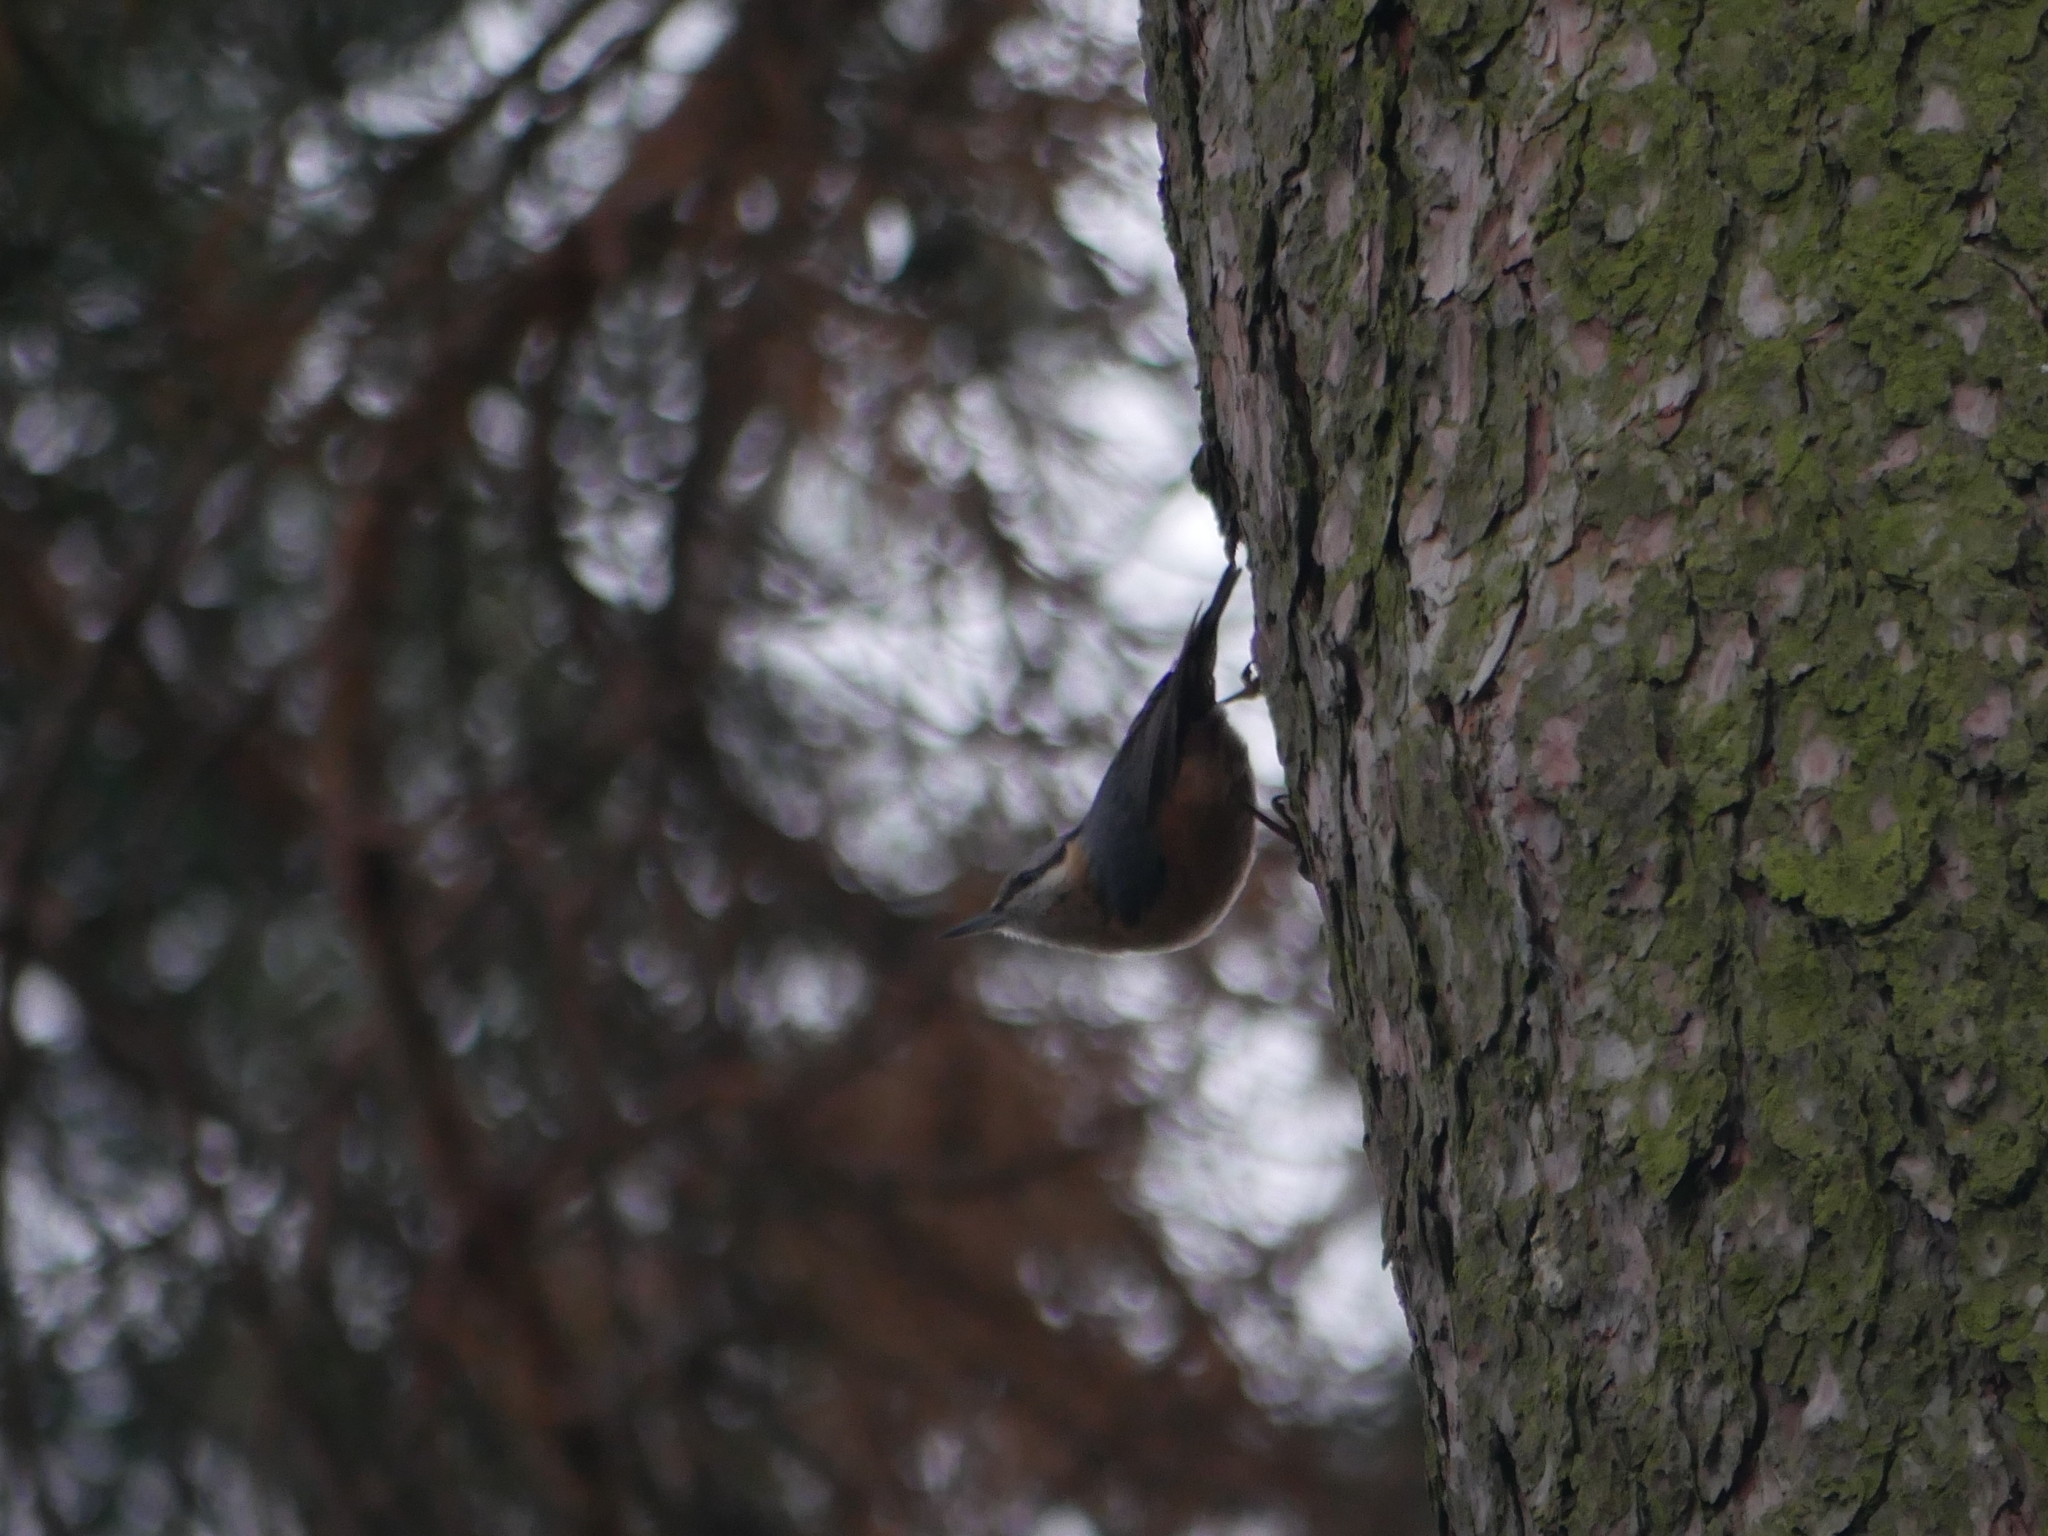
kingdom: Animalia
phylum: Chordata
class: Aves
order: Passeriformes
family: Sittidae
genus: Sitta
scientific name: Sitta europaea
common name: Eurasian nuthatch
